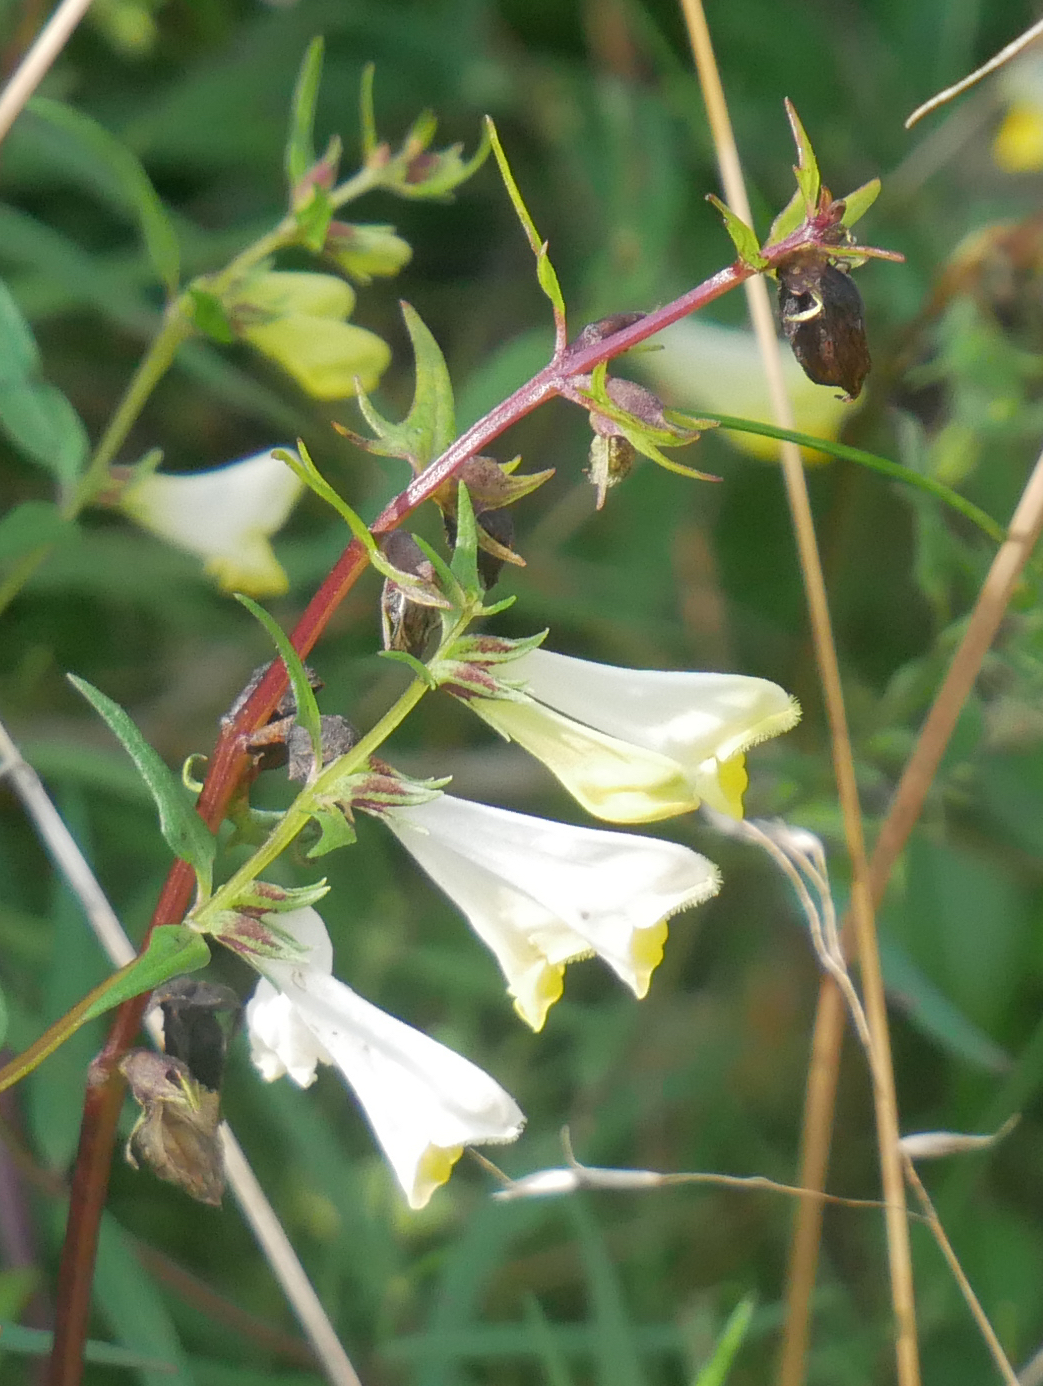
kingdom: Plantae
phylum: Tracheophyta
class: Magnoliopsida
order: Lamiales
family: Orobanchaceae
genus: Melampyrum
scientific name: Melampyrum pratense
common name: Common cow-wheat
